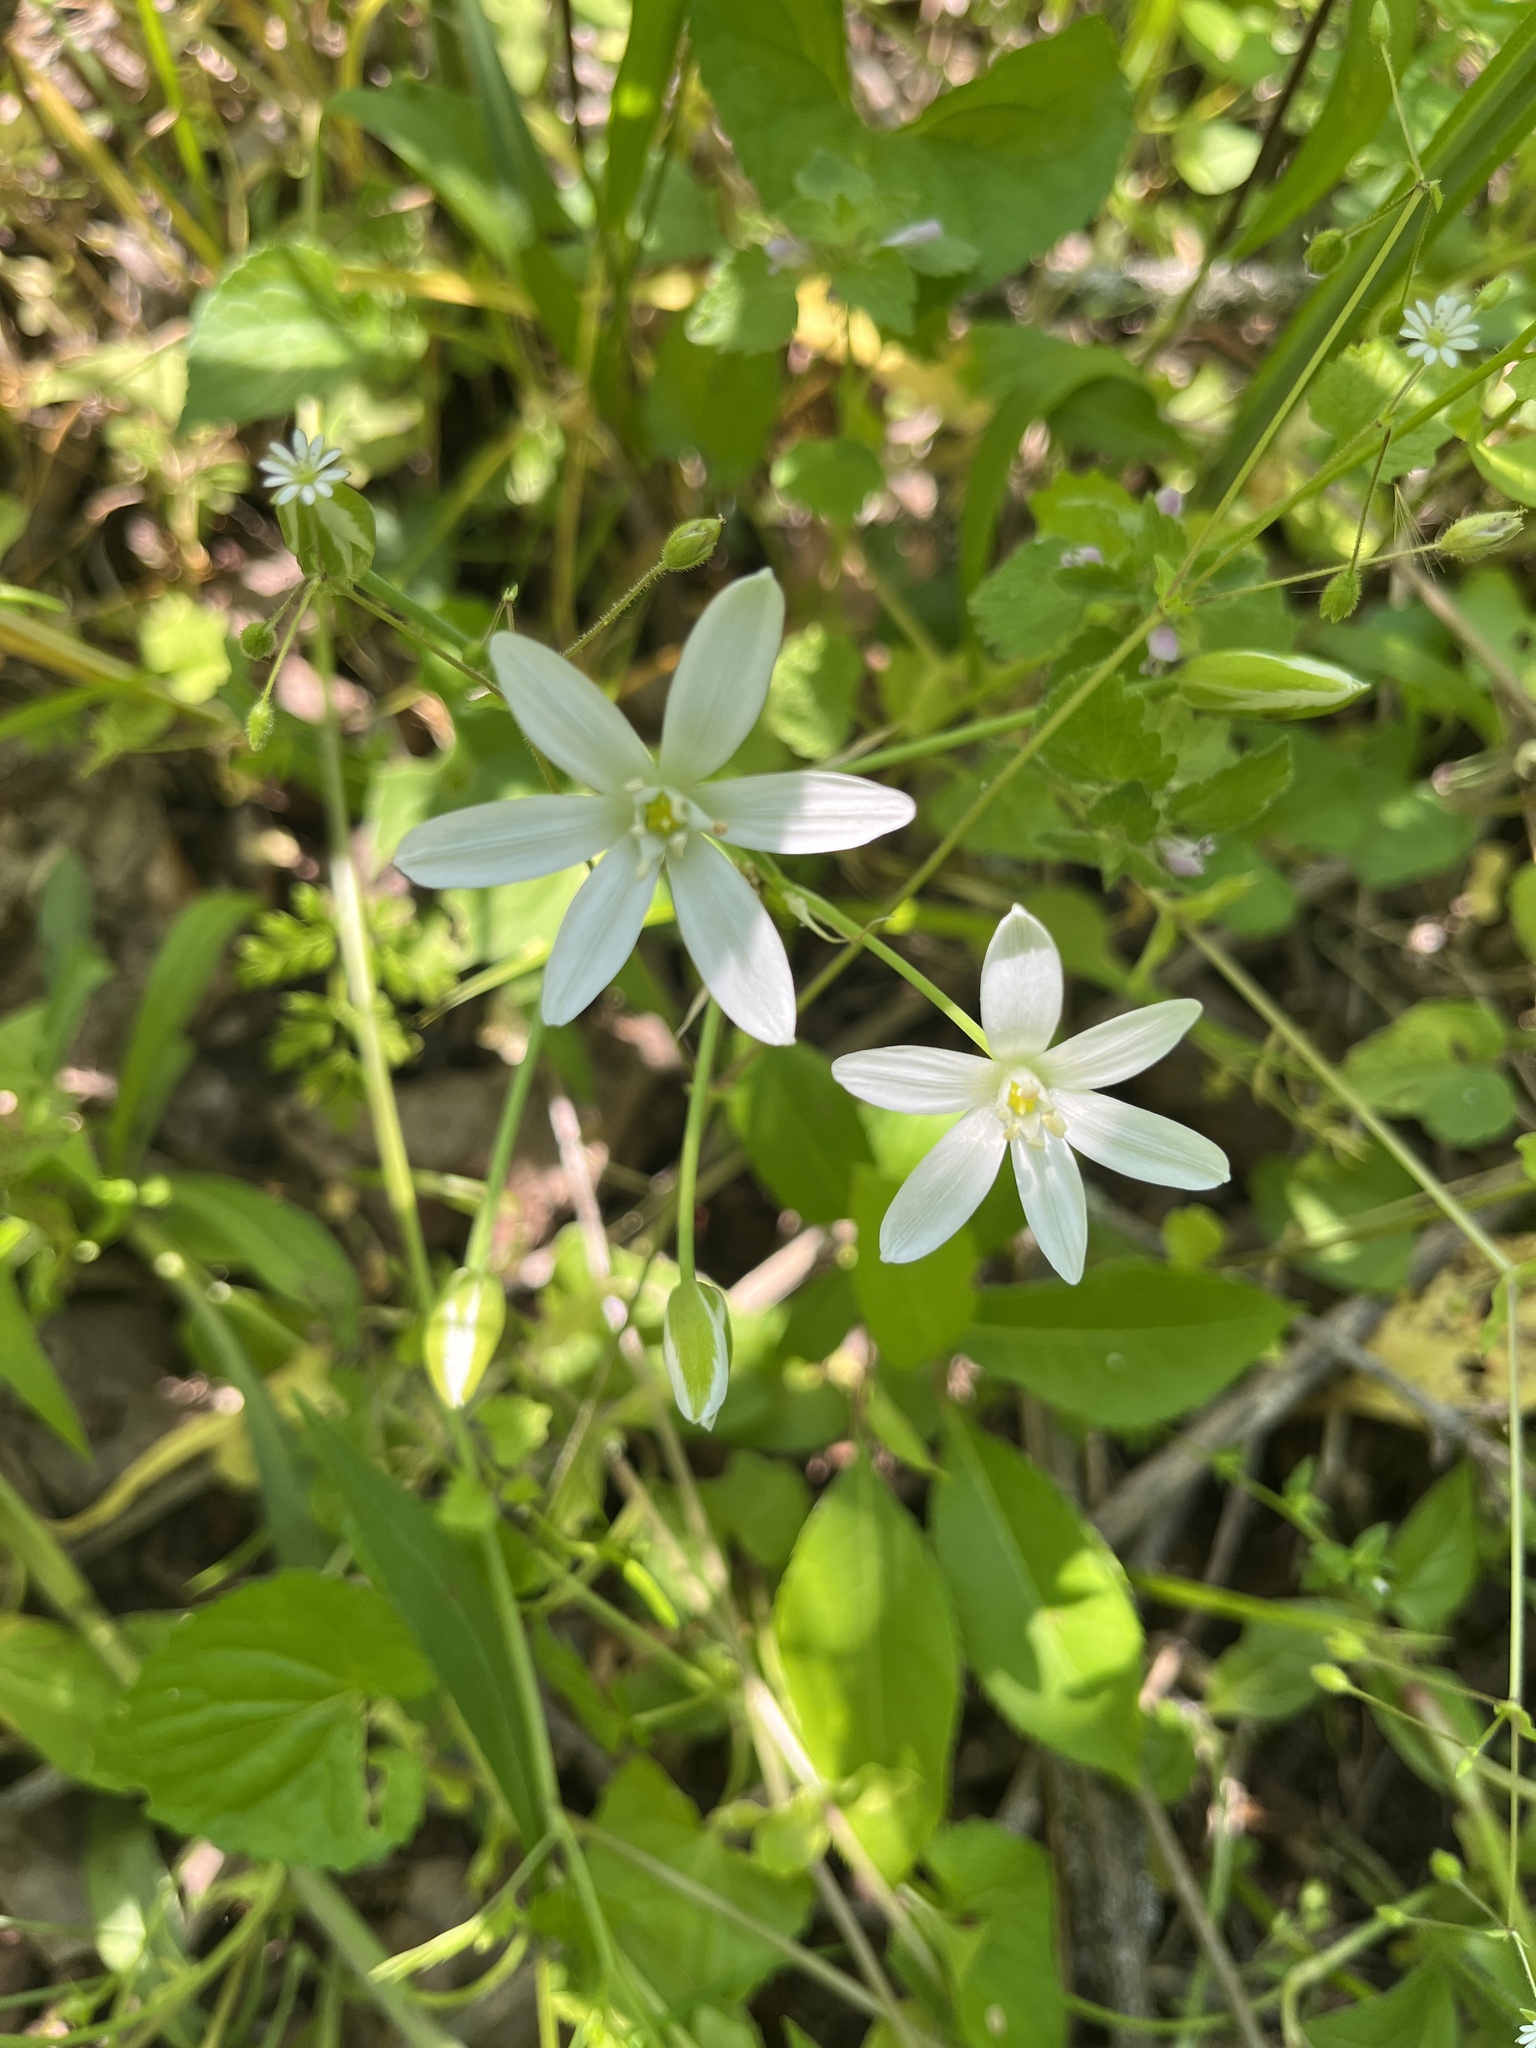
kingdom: Plantae
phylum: Tracheophyta
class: Liliopsida
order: Asparagales
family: Asparagaceae
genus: Ornithogalum
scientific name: Ornithogalum umbellatum
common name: Garden star-of-bethlehem
